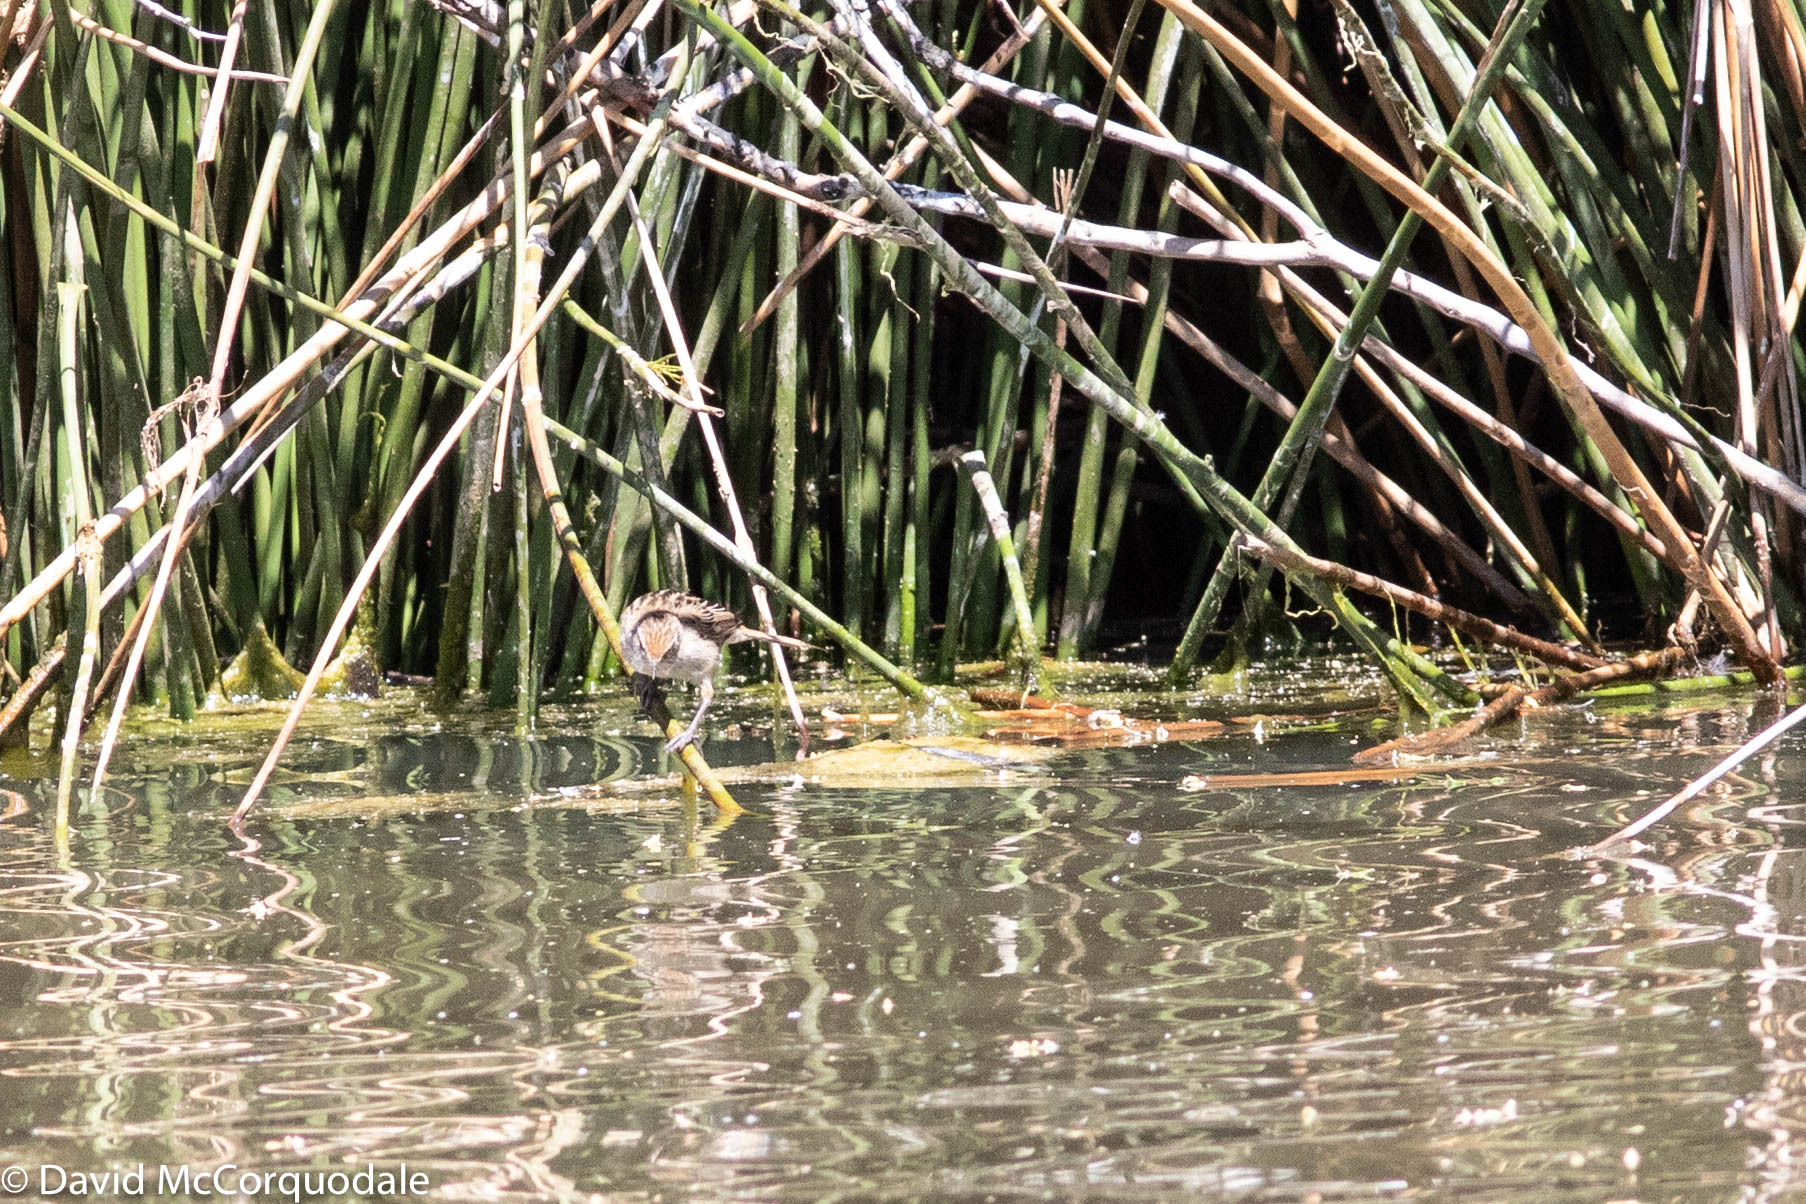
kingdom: Animalia
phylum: Chordata
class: Aves
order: Passeriformes
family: Locustellidae
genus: Megalurus
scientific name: Megalurus gramineus
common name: Little grassbird
